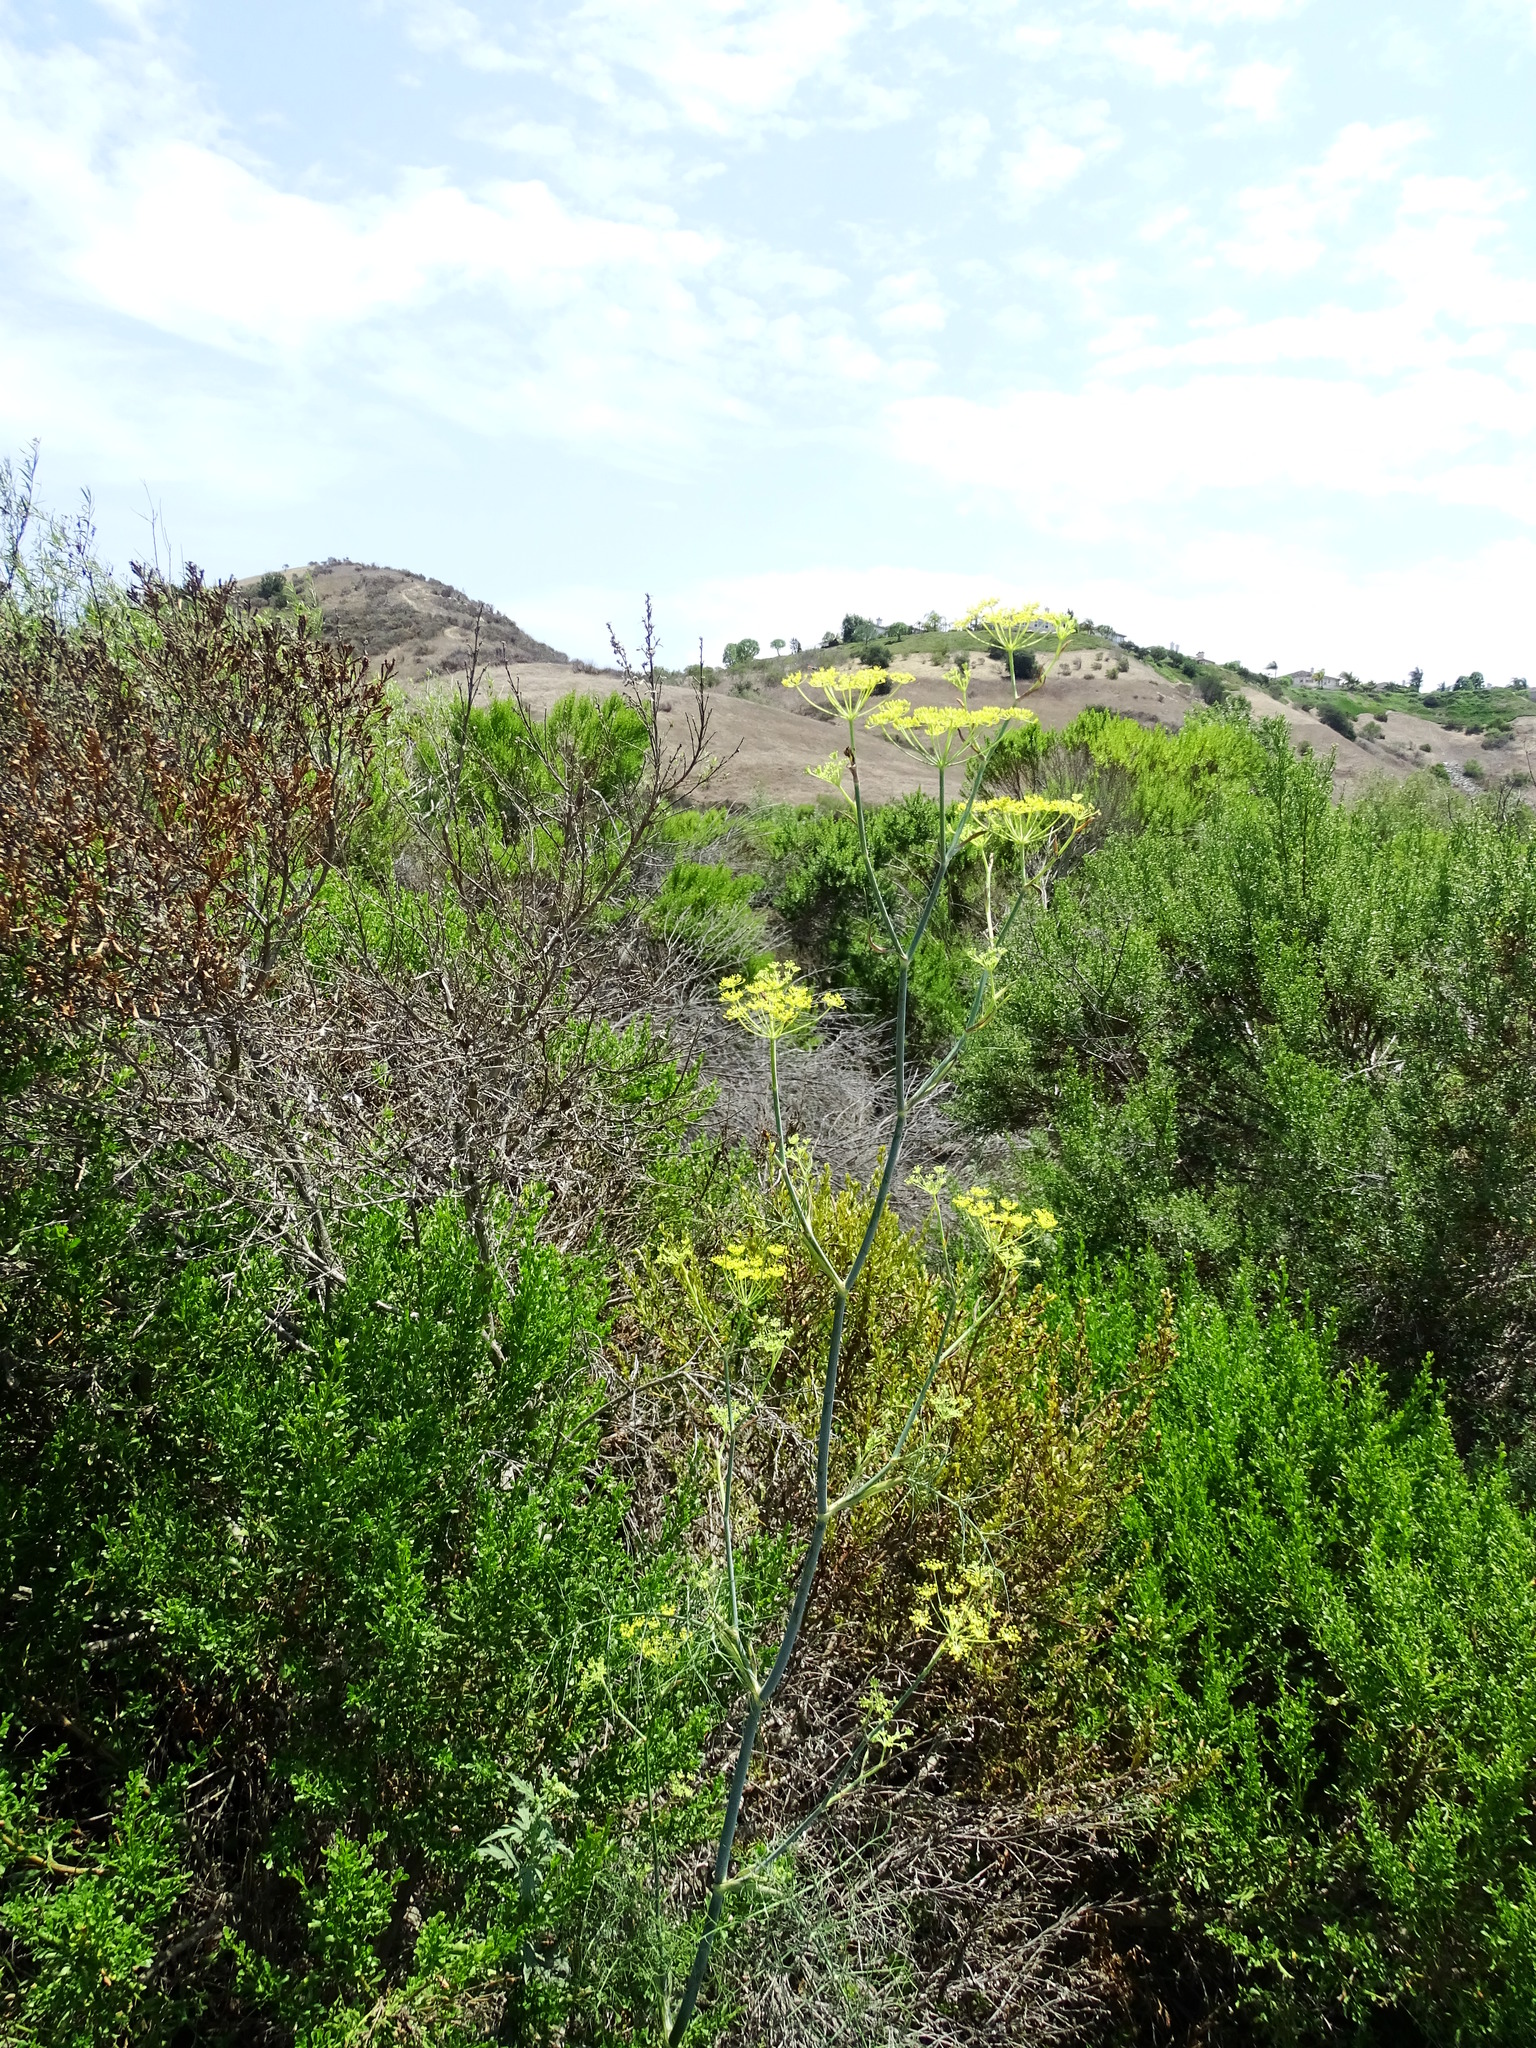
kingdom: Plantae
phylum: Tracheophyta
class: Magnoliopsida
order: Apiales
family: Apiaceae
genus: Foeniculum
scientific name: Foeniculum vulgare
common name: Fennel
